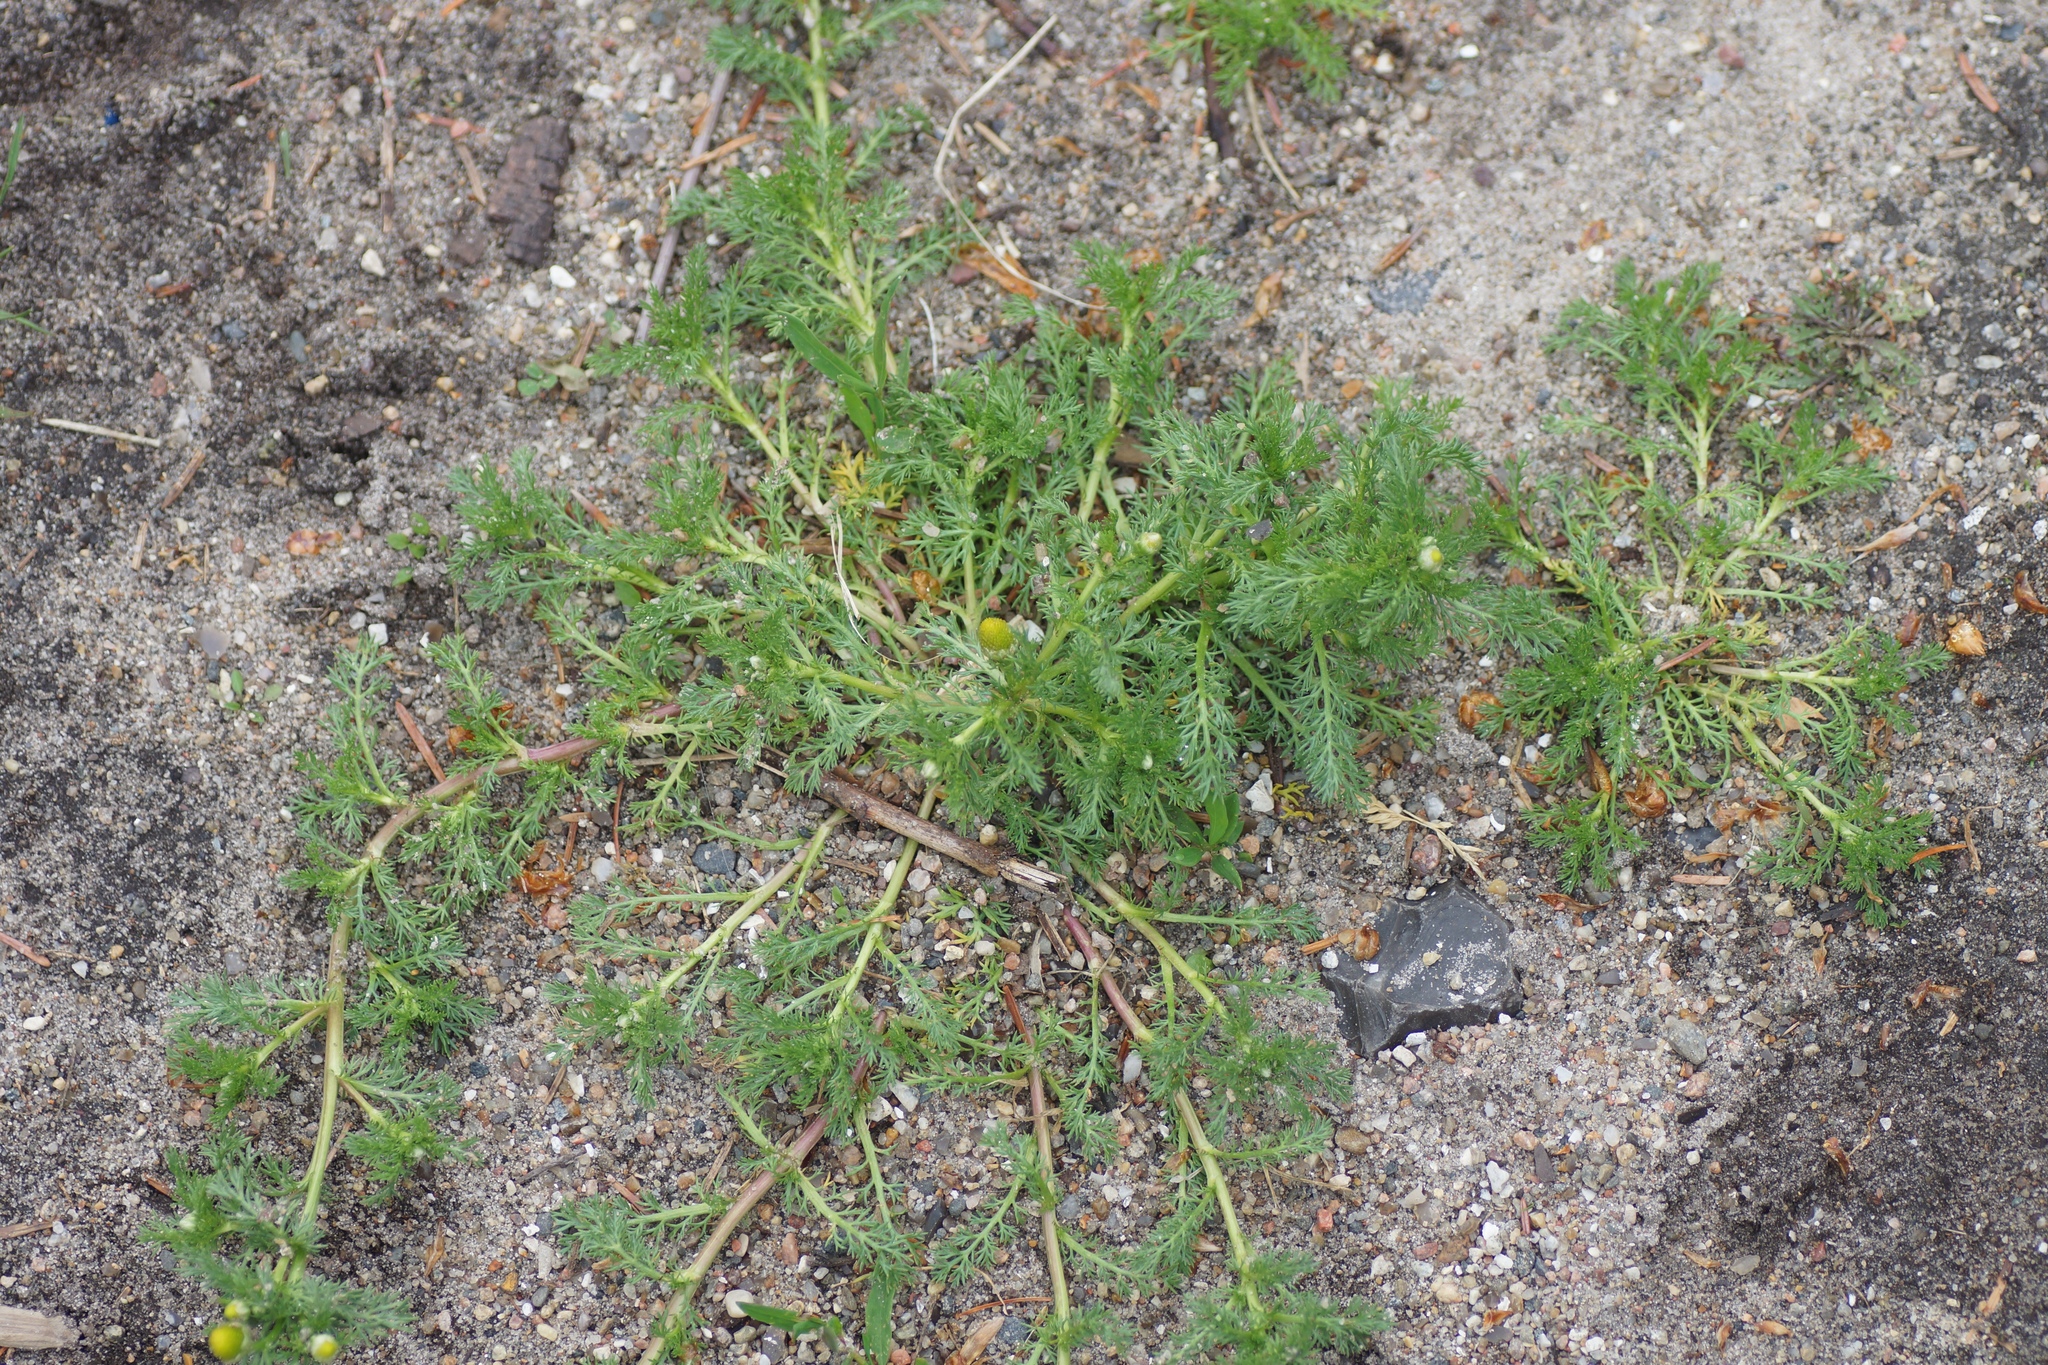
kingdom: Plantae
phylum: Tracheophyta
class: Magnoliopsida
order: Asterales
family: Asteraceae
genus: Matricaria
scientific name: Matricaria discoidea
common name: Disc mayweed
